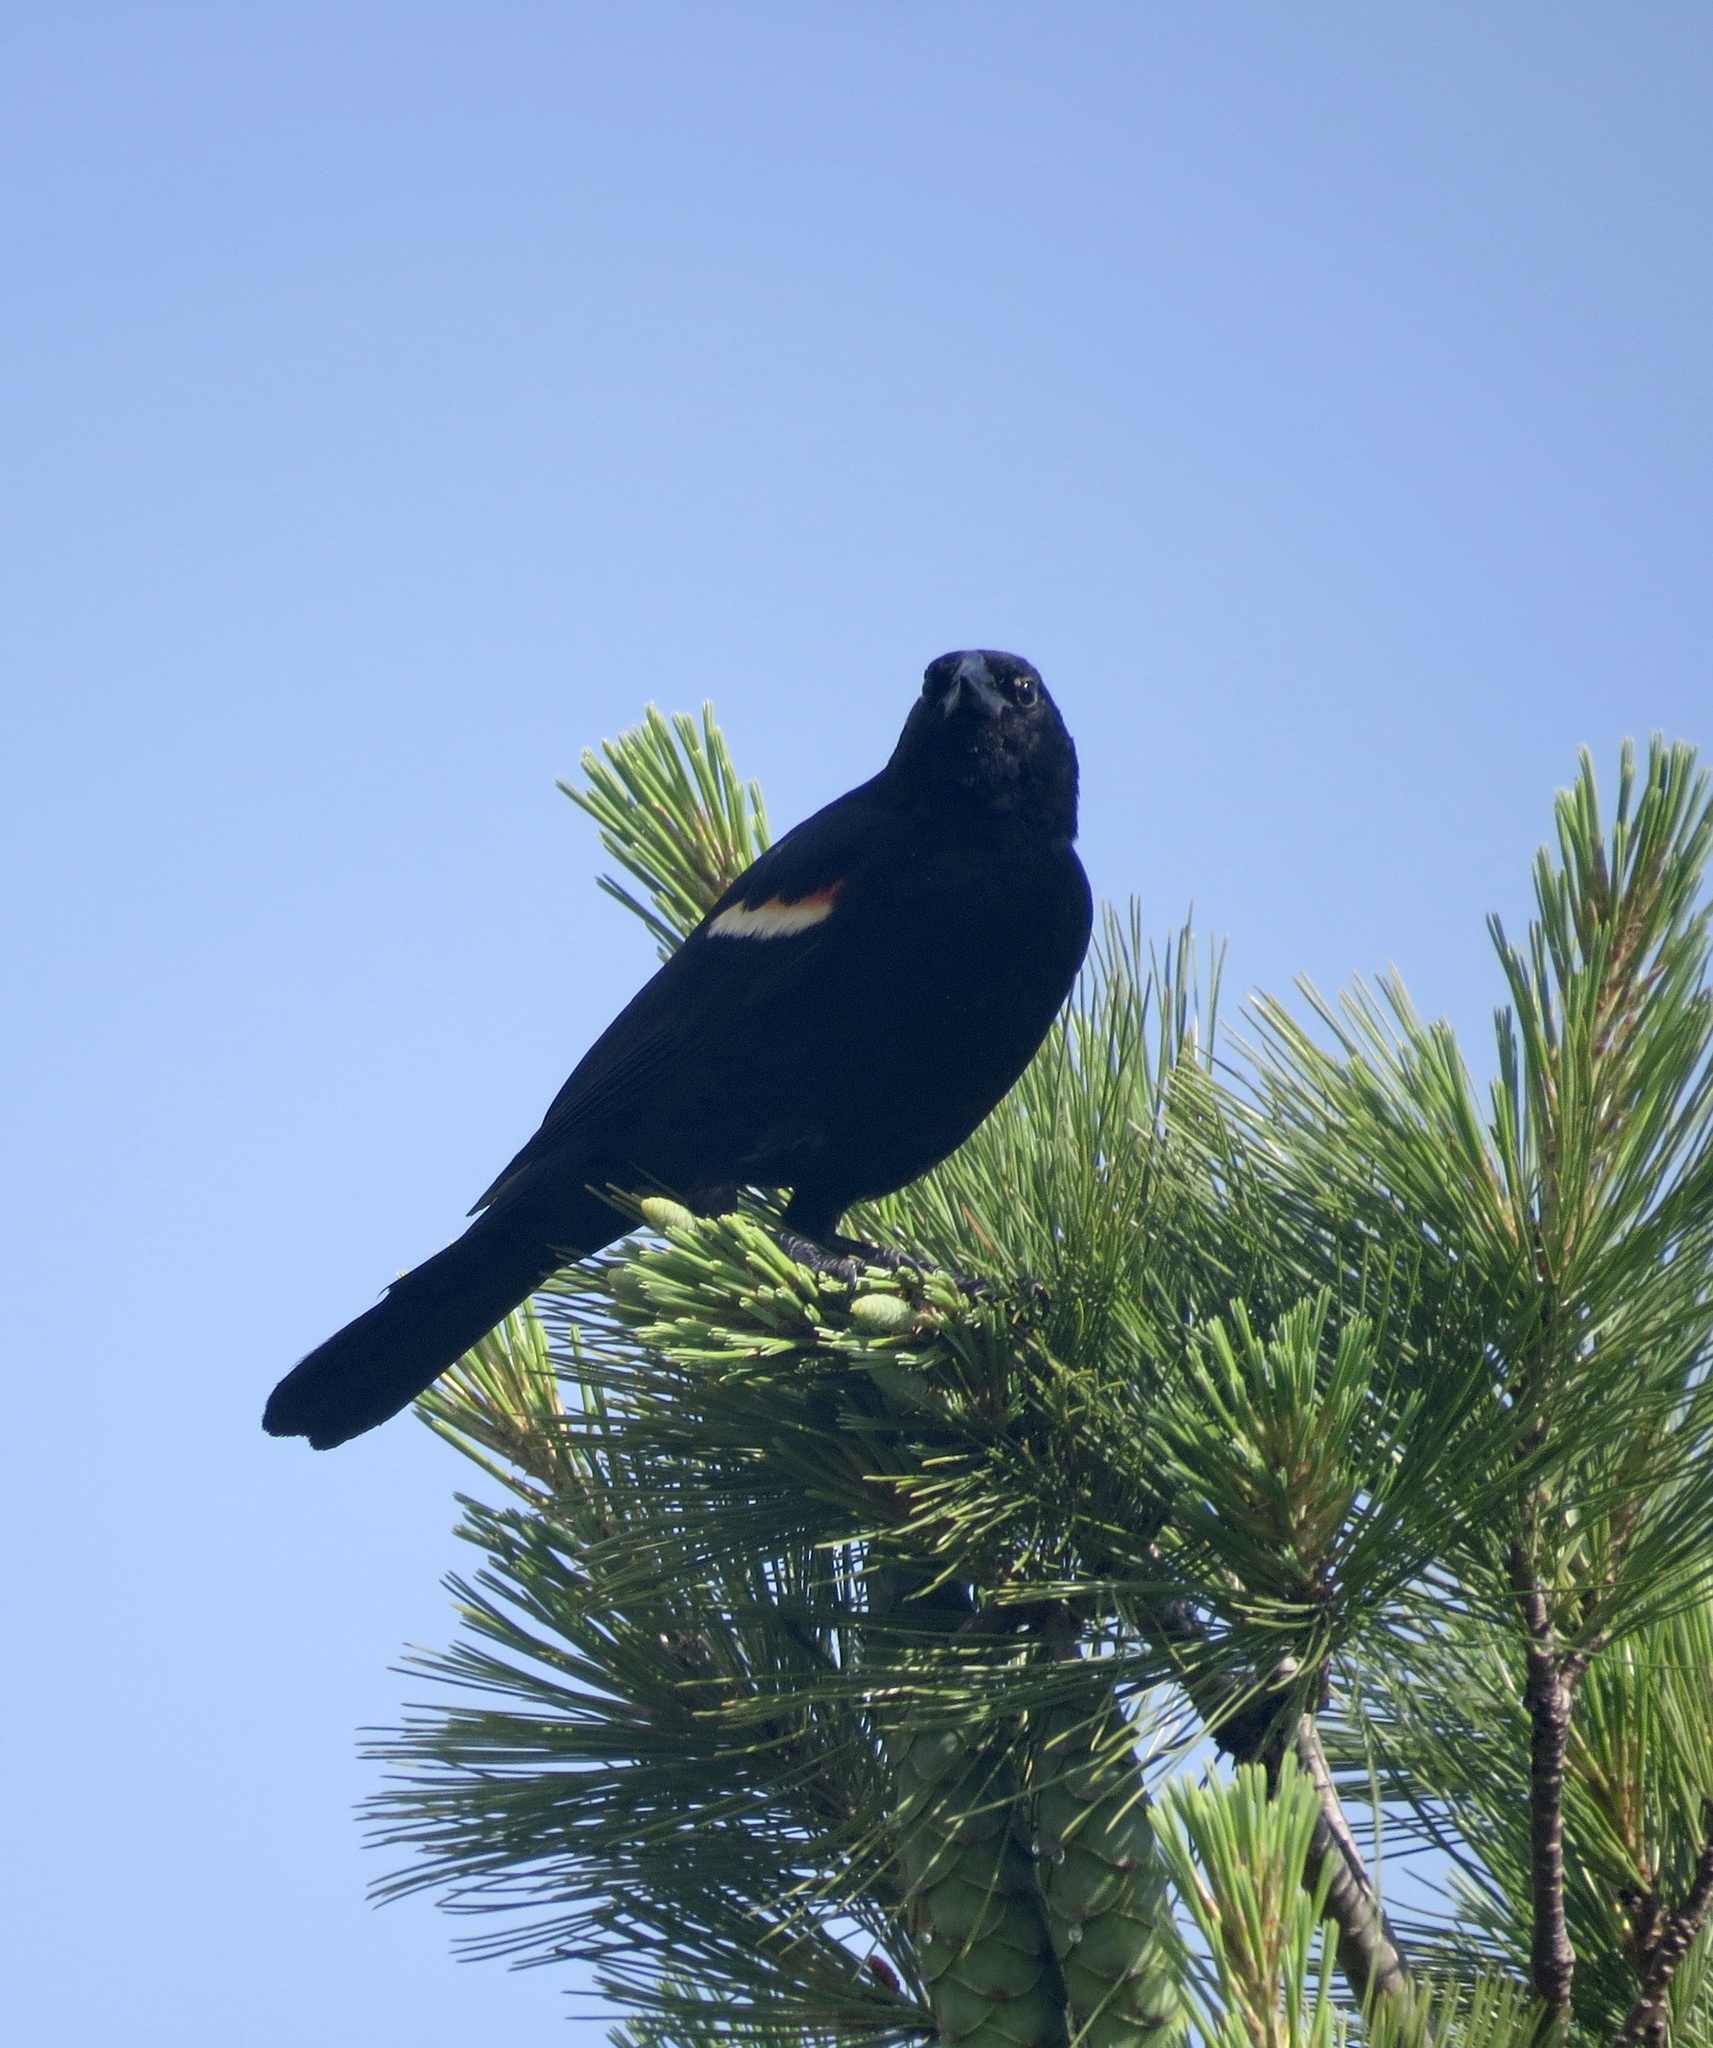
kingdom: Animalia
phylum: Chordata
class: Aves
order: Passeriformes
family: Icteridae
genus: Agelaius
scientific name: Agelaius phoeniceus
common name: Red-winged blackbird
